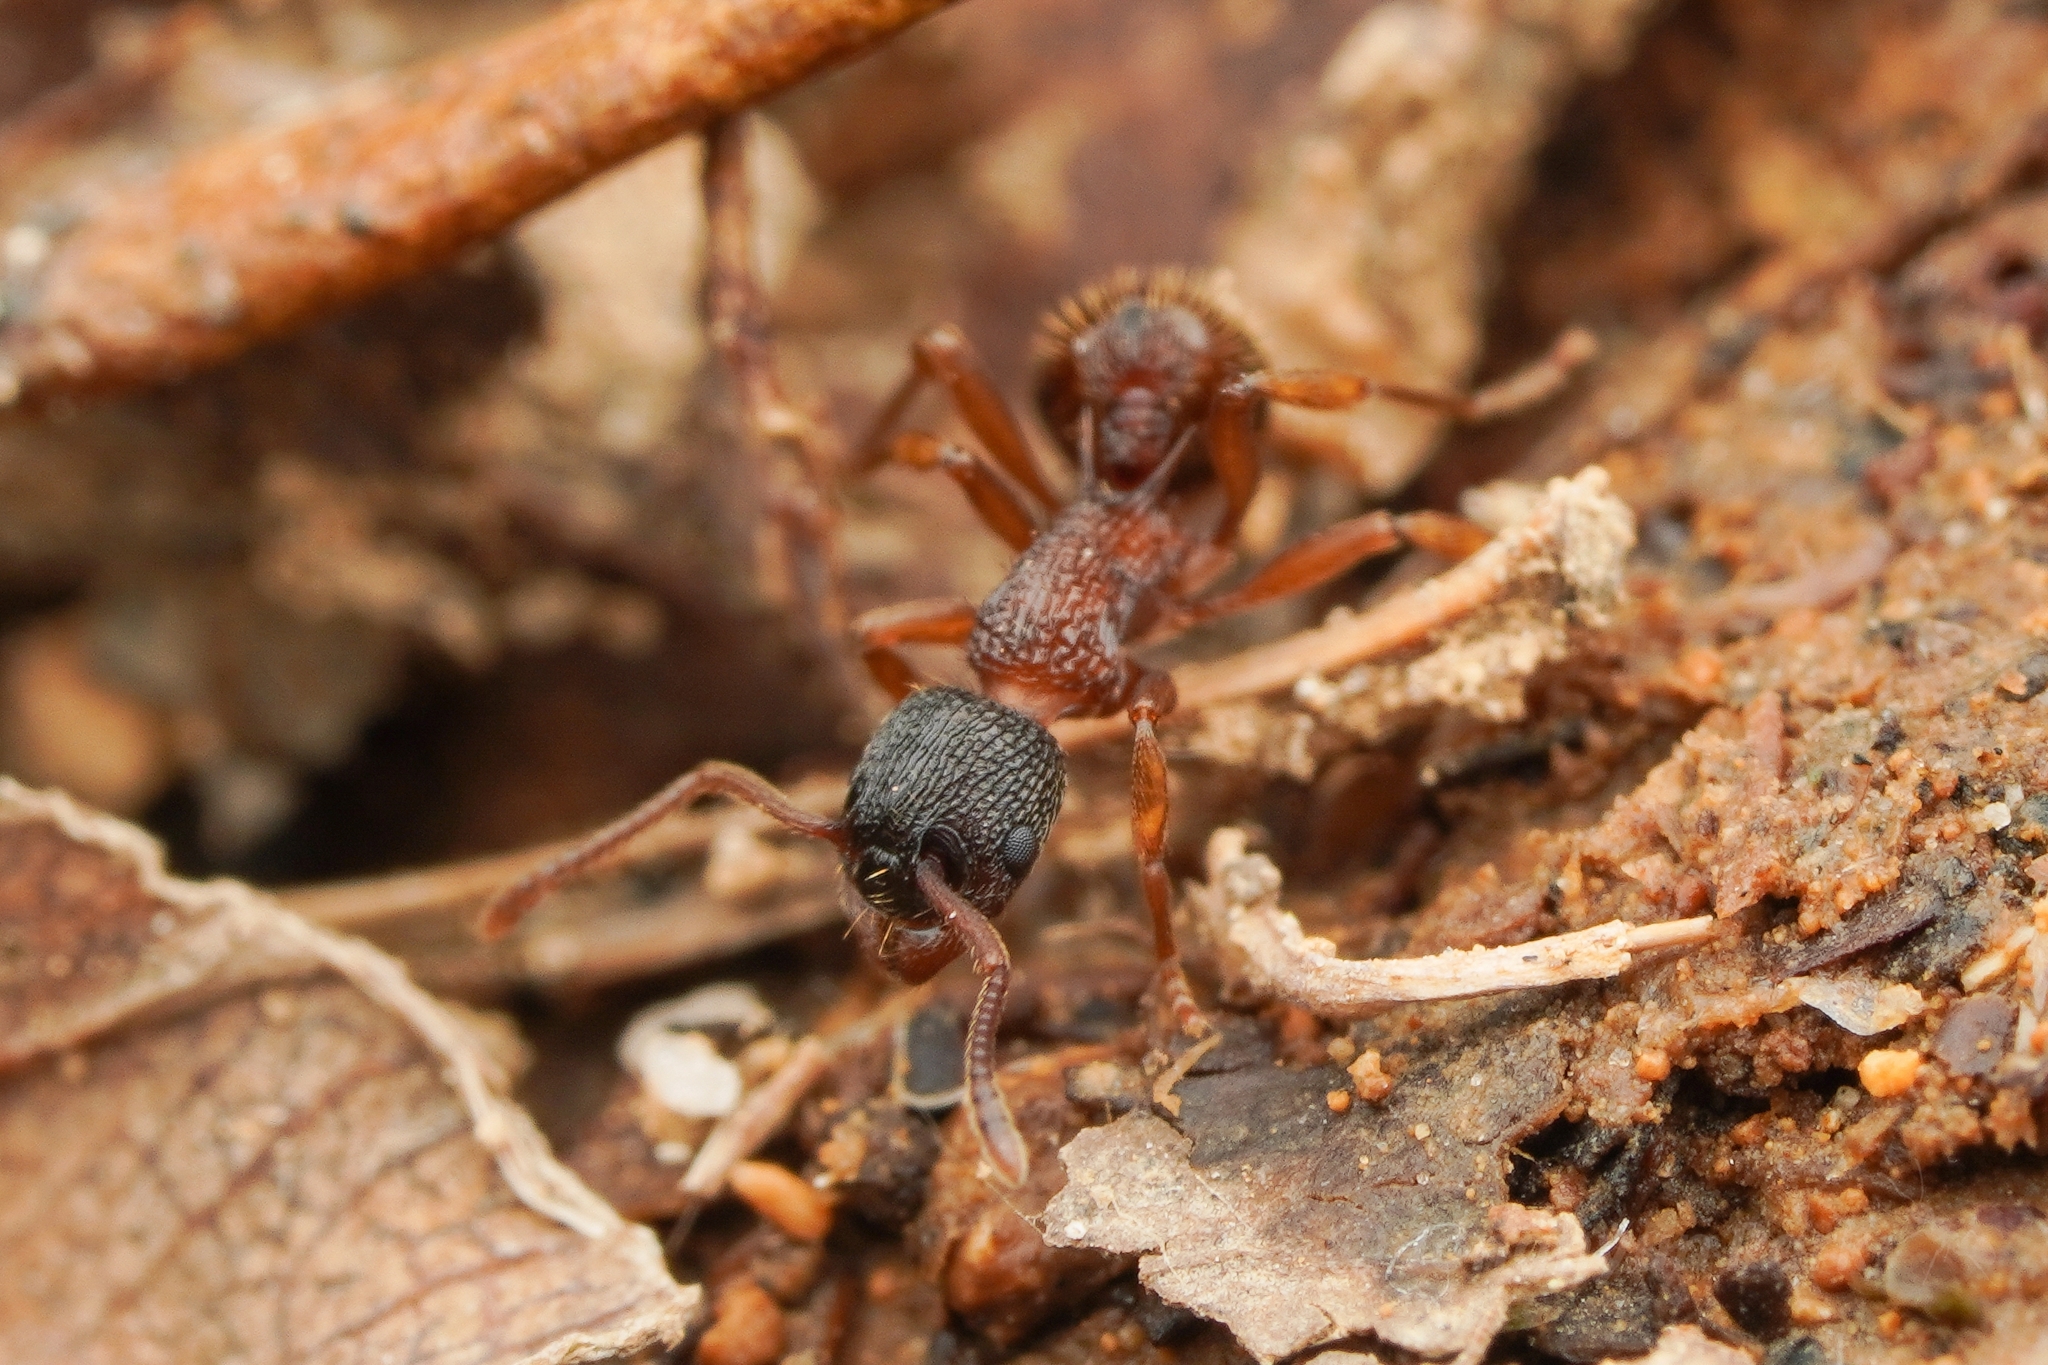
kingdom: Animalia
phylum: Arthropoda
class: Insecta
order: Hymenoptera
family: Formicidae
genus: Myrmica
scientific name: Myrmica ademonia
